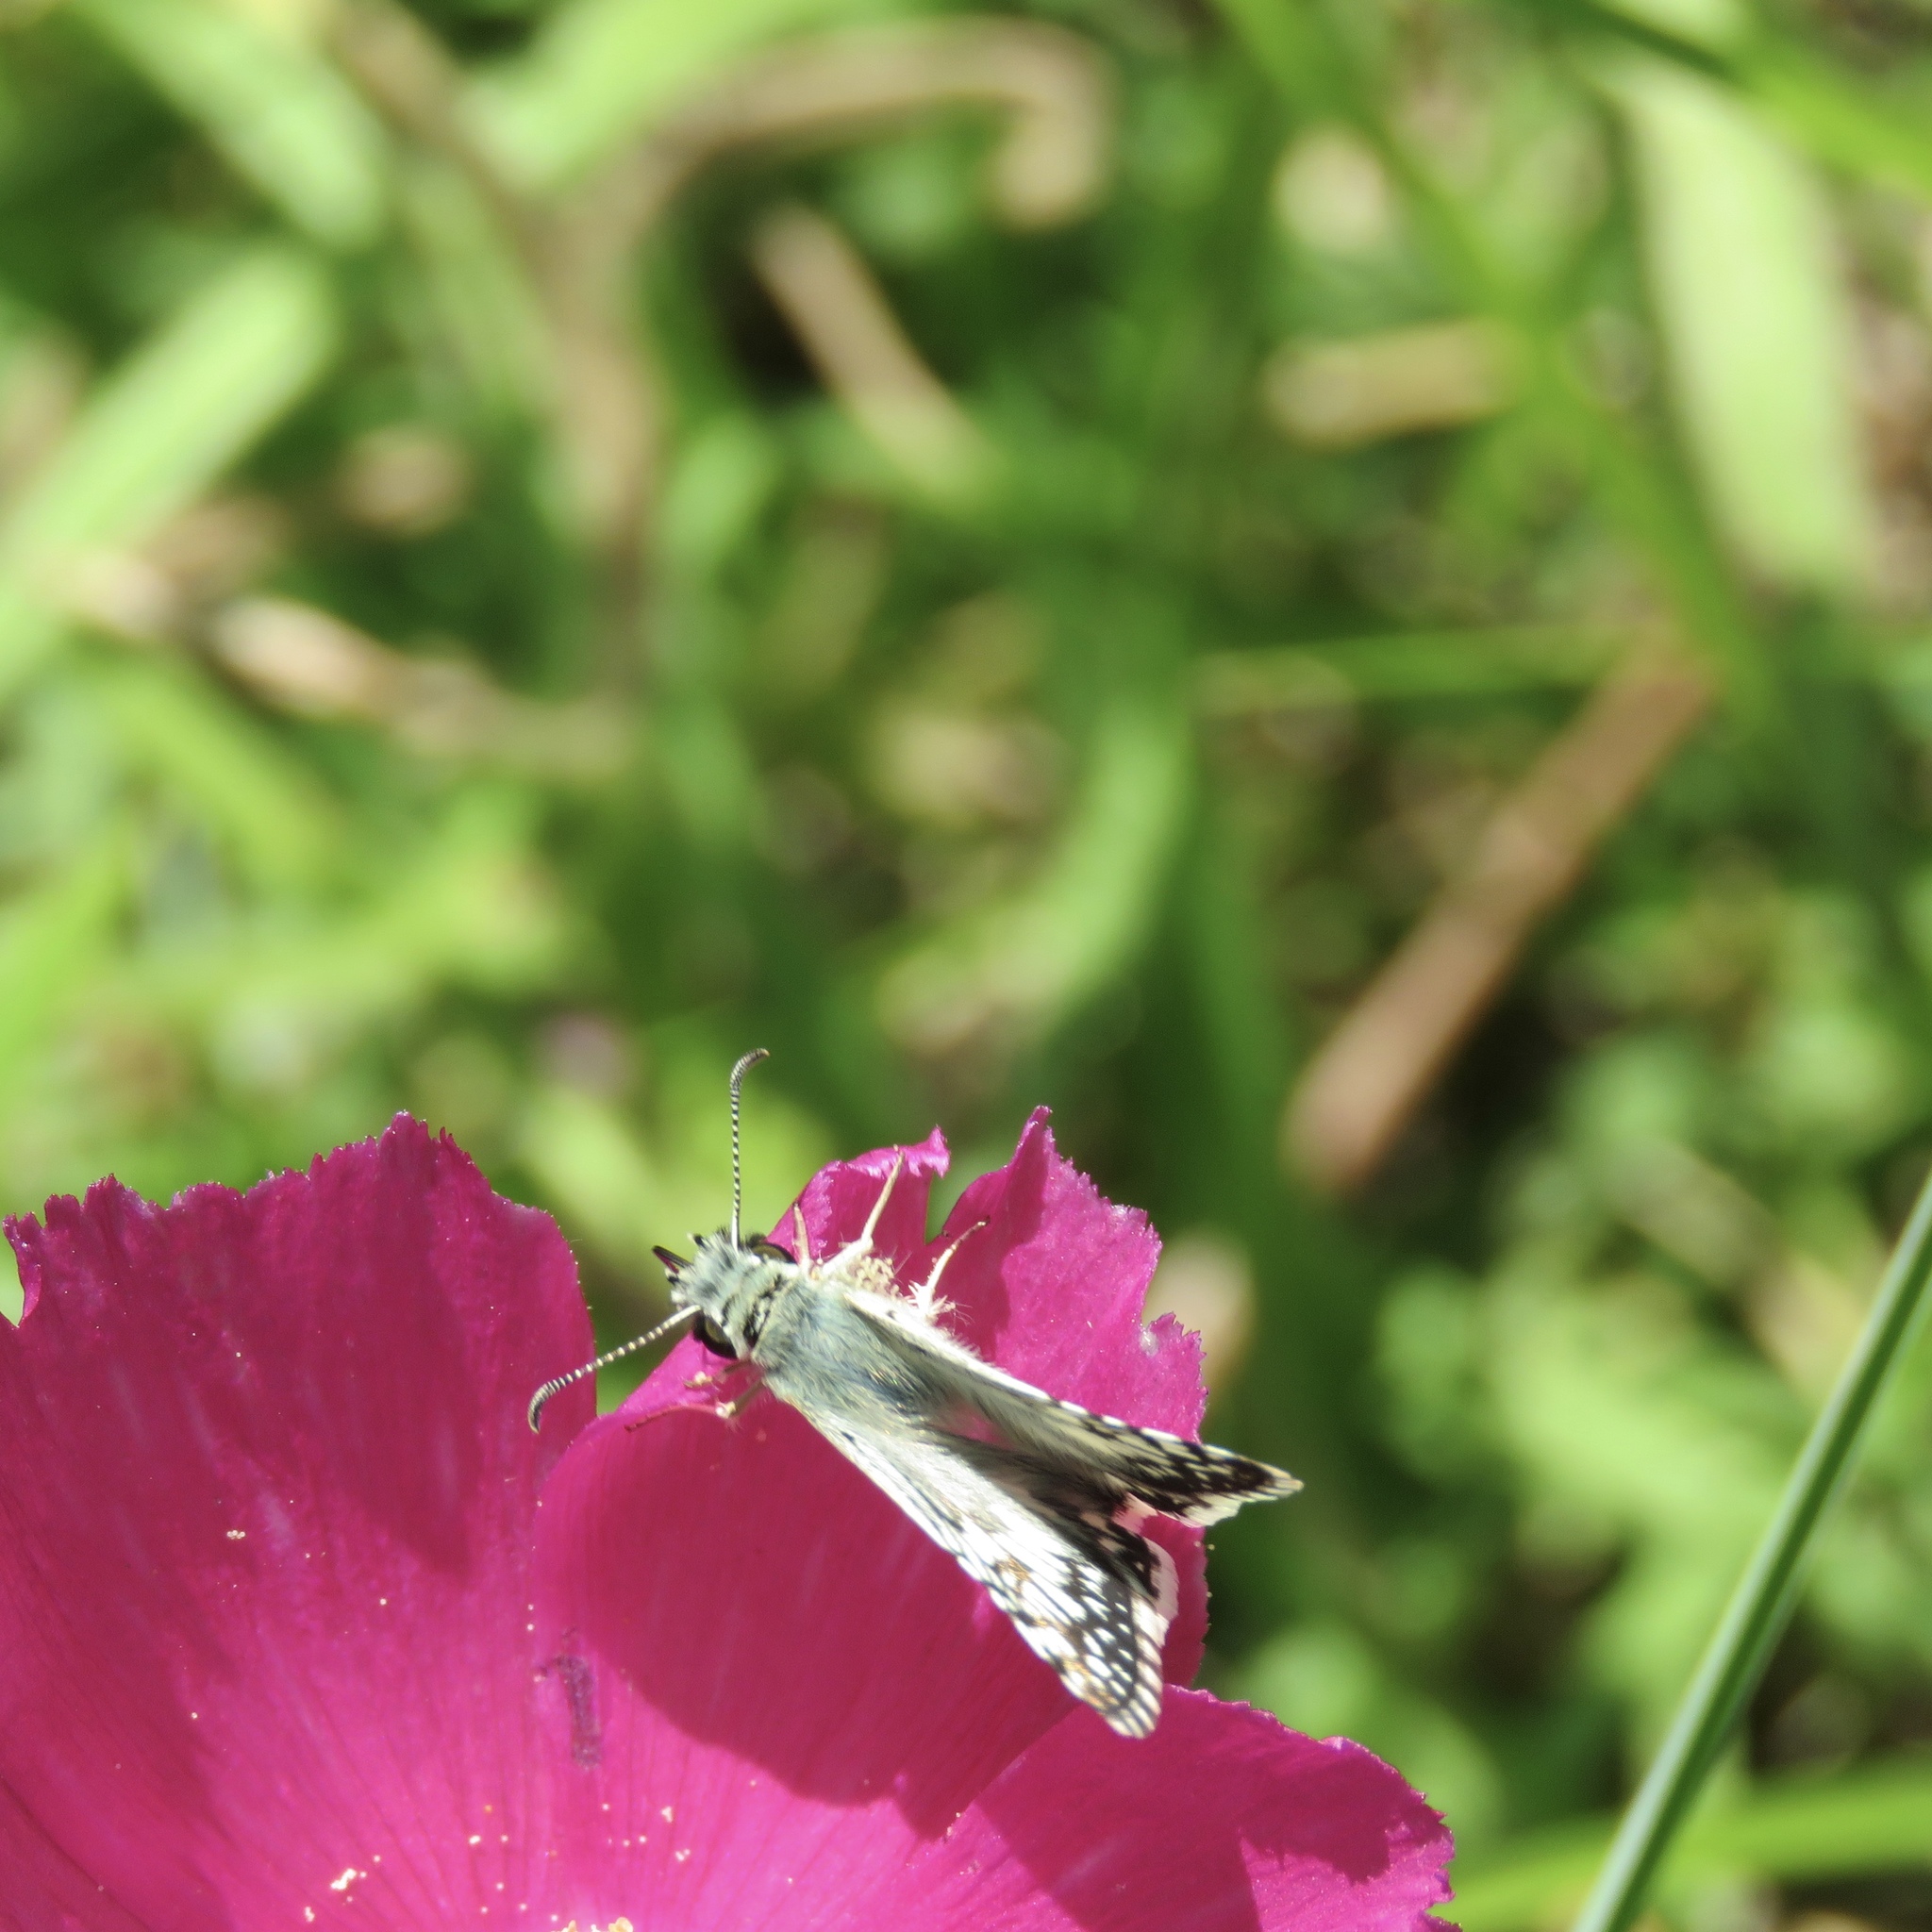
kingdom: Animalia
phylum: Arthropoda
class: Insecta
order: Lepidoptera
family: Hesperiidae
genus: Burnsius
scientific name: Burnsius
